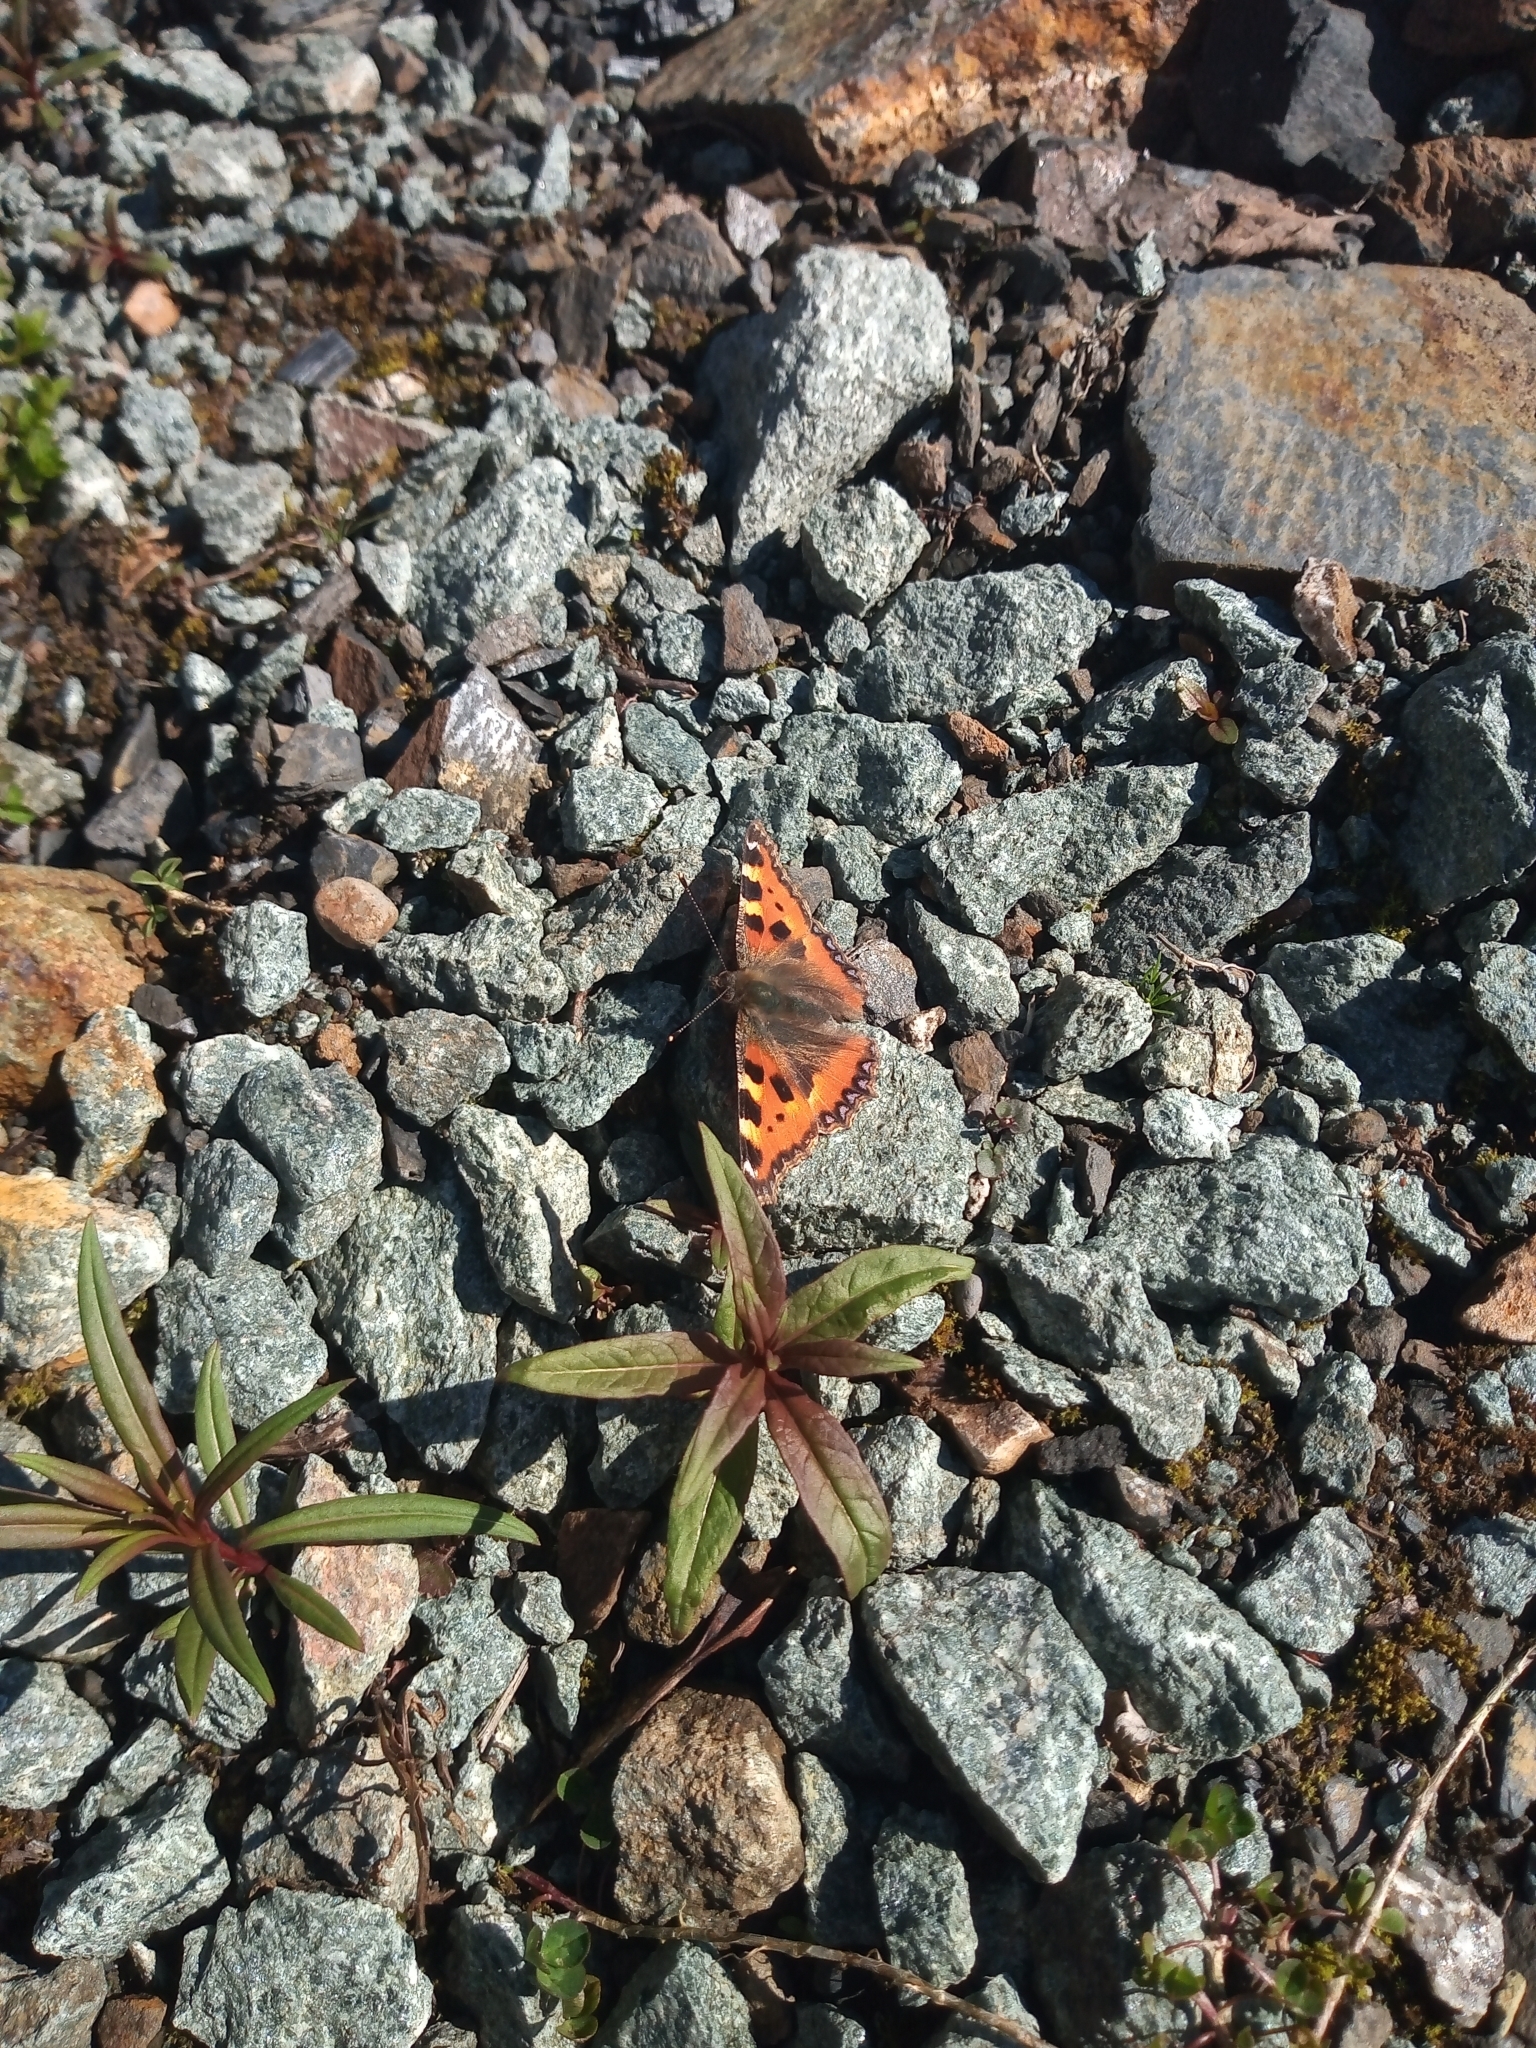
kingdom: Animalia
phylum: Arthropoda
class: Insecta
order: Lepidoptera
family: Nymphalidae
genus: Aglais
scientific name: Aglais urticae
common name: Small tortoiseshell
